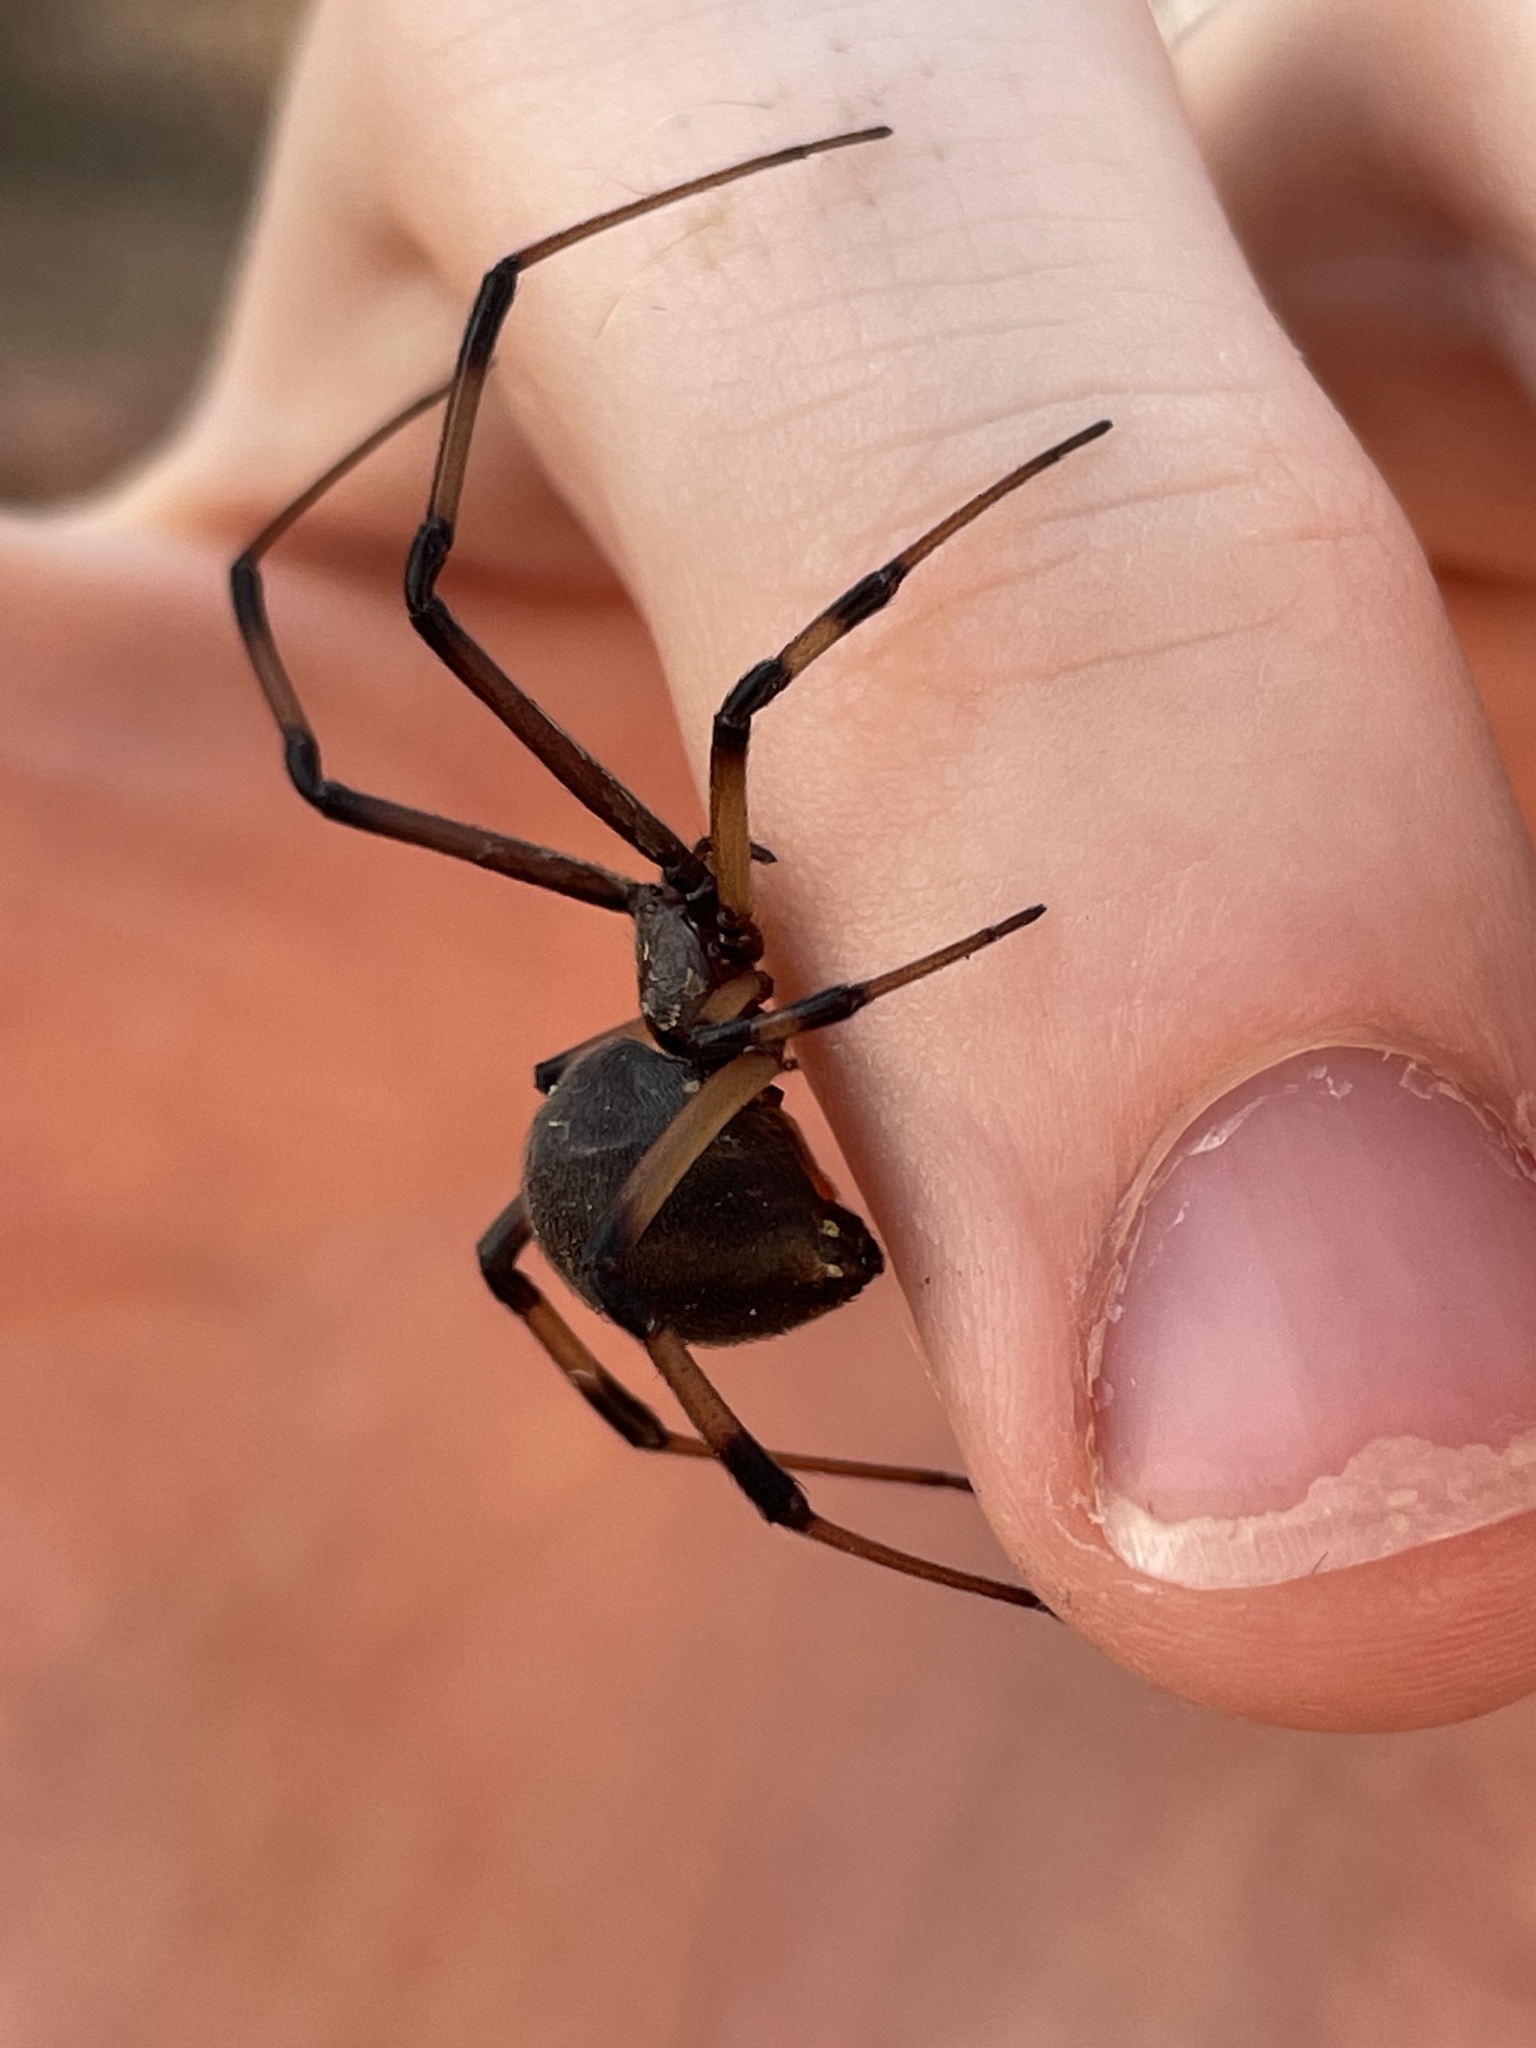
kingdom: Animalia
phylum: Arthropoda
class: Arachnida
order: Araneae
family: Theridiidae
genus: Latrodectus
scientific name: Latrodectus geometricus
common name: Brown widow spider
